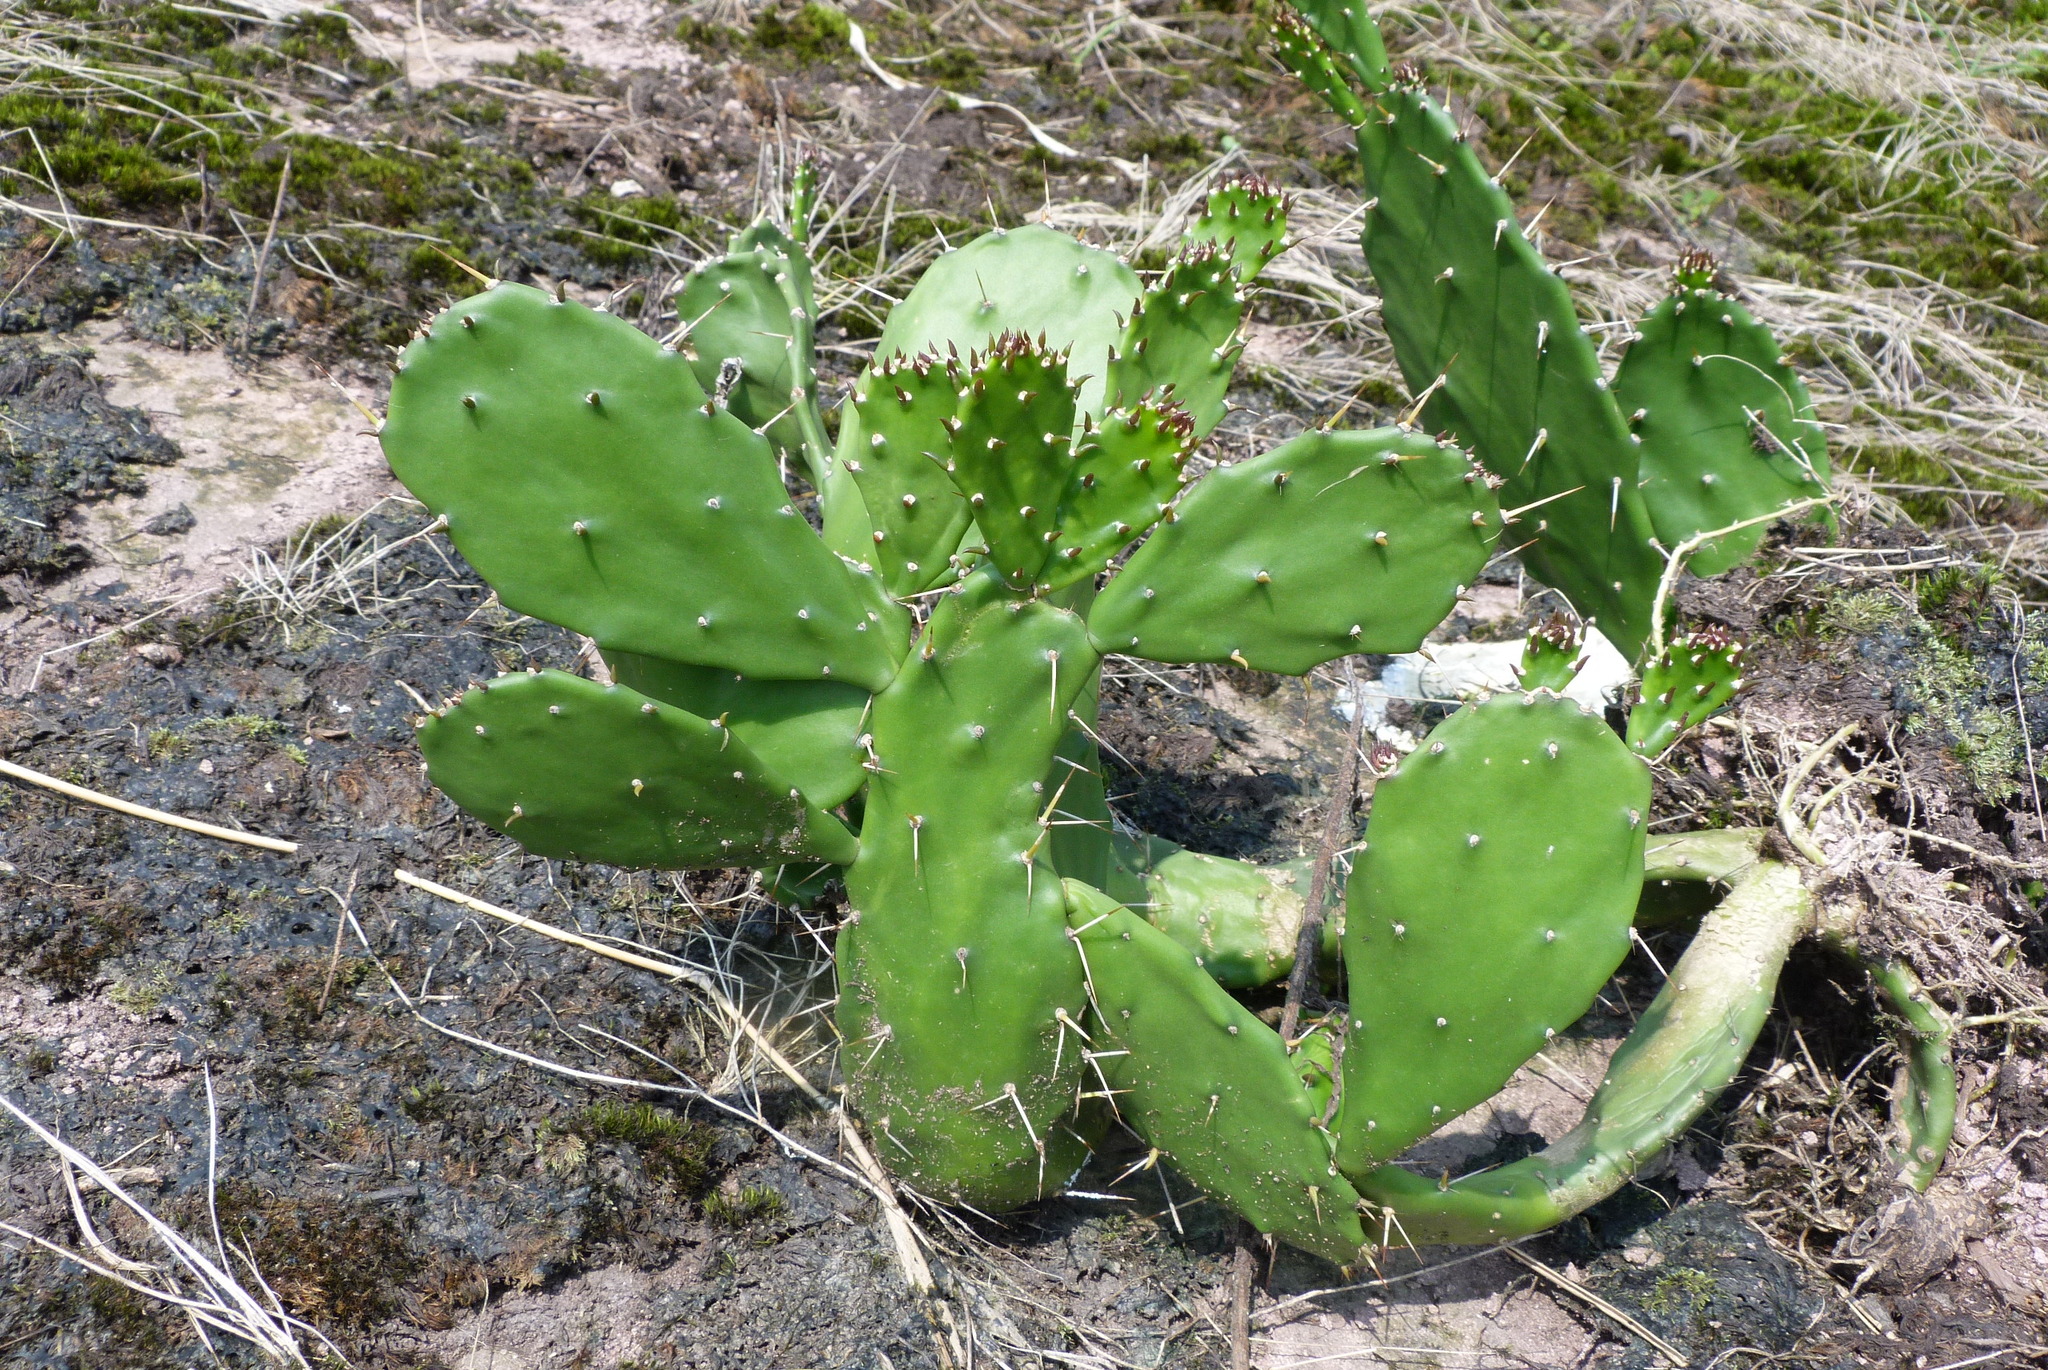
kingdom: Plantae
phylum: Tracheophyta
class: Magnoliopsida
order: Caryophyllales
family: Cactaceae
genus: Opuntia
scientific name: Opuntia monacantha
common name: Common pricklypear
